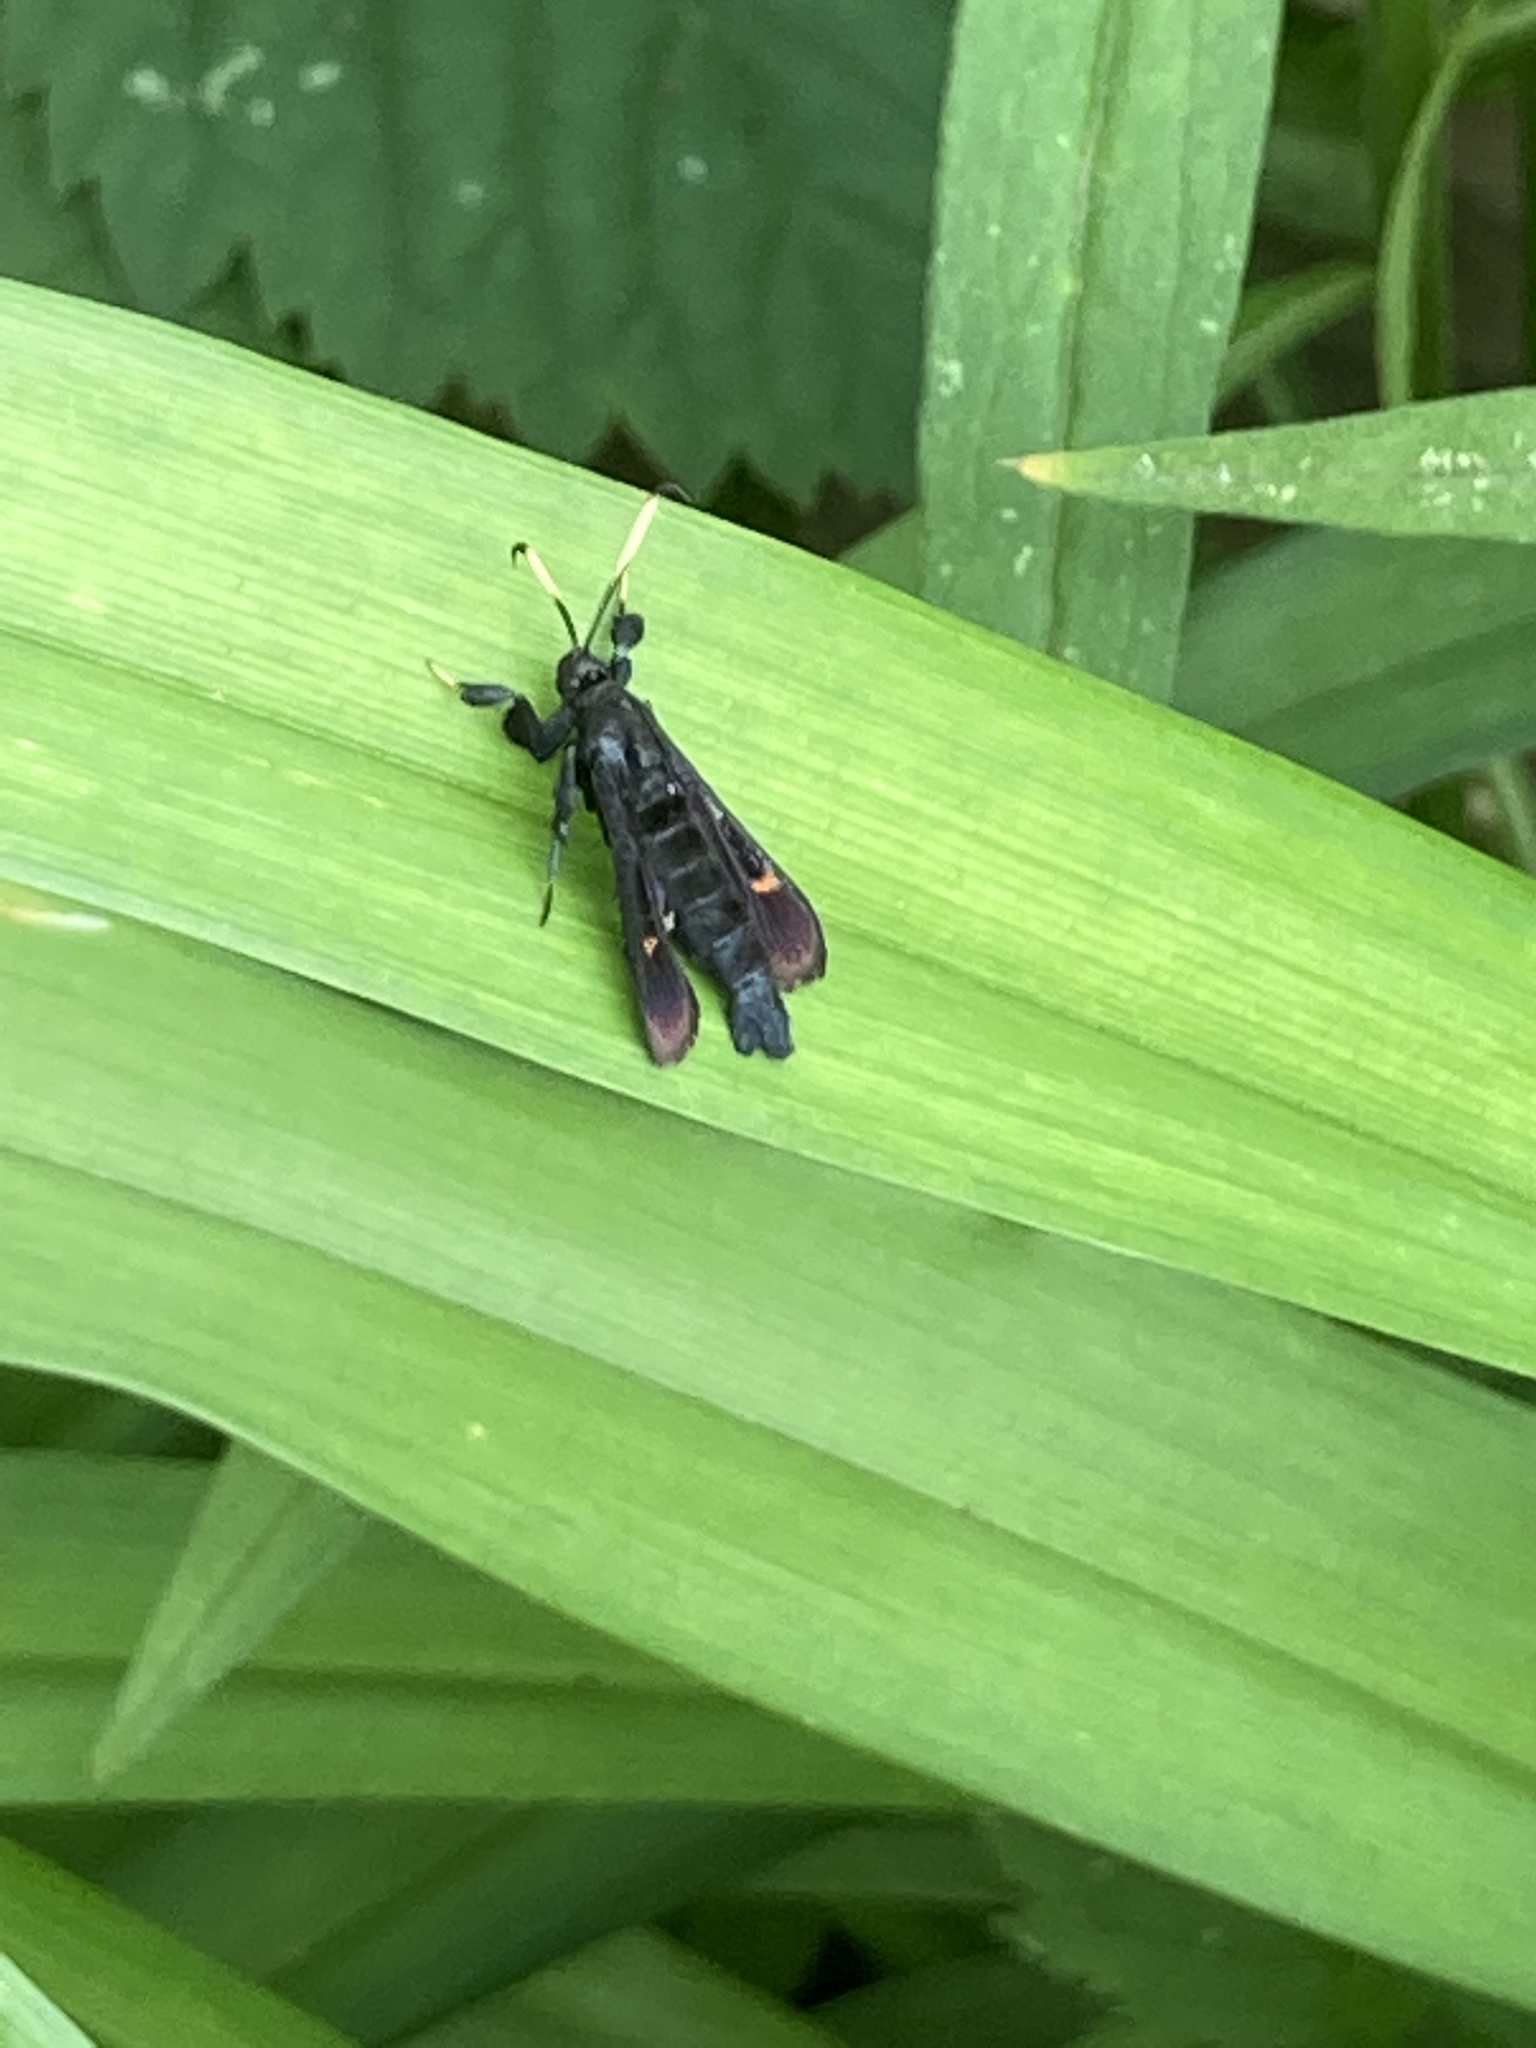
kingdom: Animalia
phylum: Arthropoda
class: Insecta
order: Lepidoptera
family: Sesiidae
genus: Albuna
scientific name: Albuna fraxini
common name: Virginia creeper clearwing
